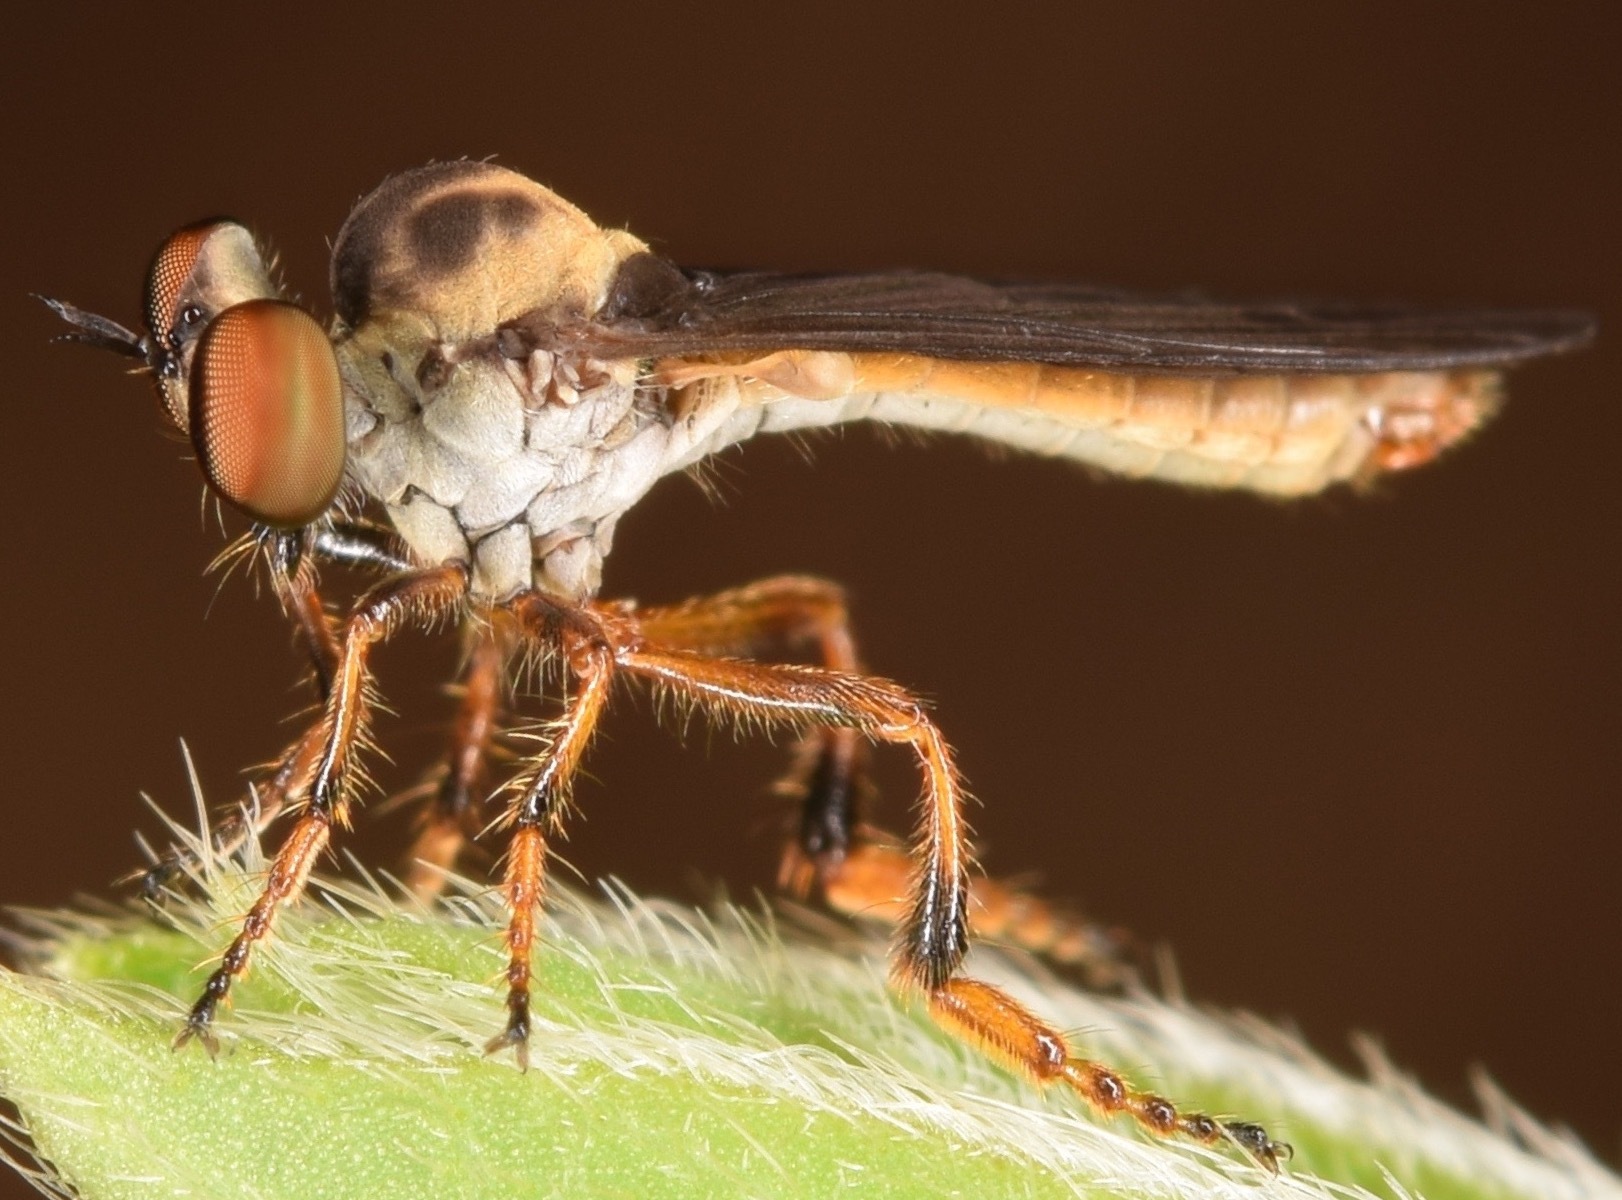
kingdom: Animalia
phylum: Arthropoda
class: Insecta
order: Diptera
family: Asilidae
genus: Holcocephala
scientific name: Holcocephala
